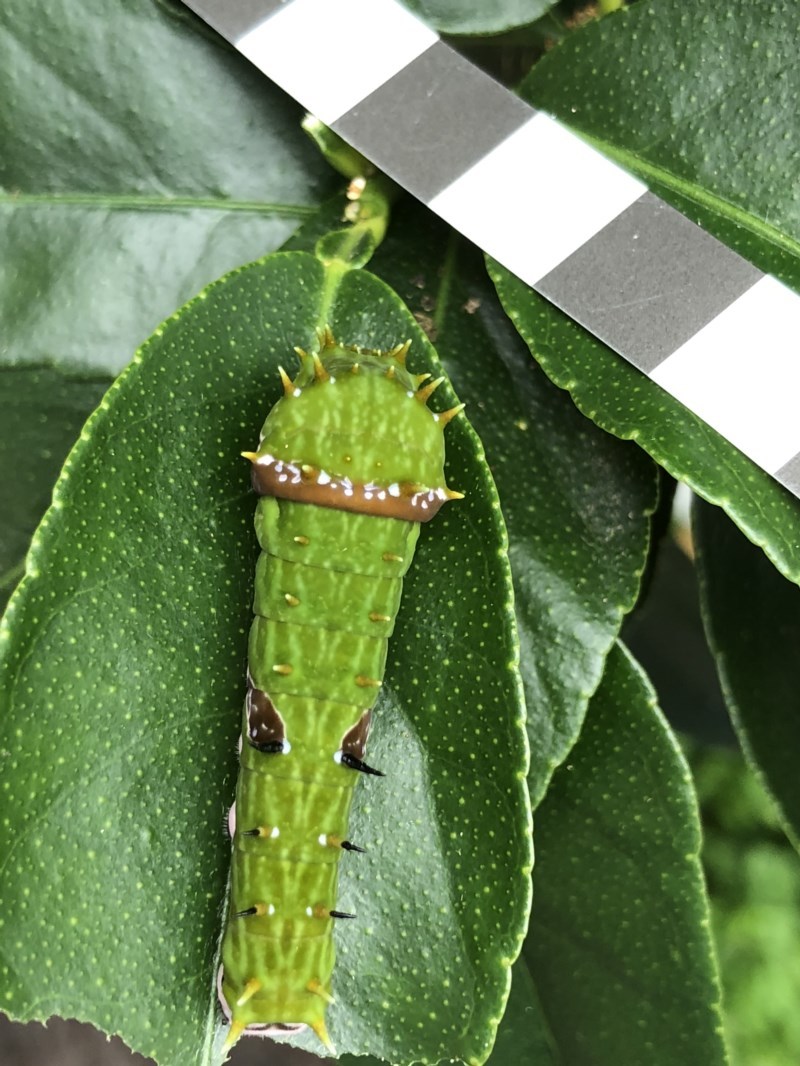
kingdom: Animalia
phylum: Arthropoda
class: Insecta
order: Lepidoptera
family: Papilionidae
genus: Papilio
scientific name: Papilio aegeus
